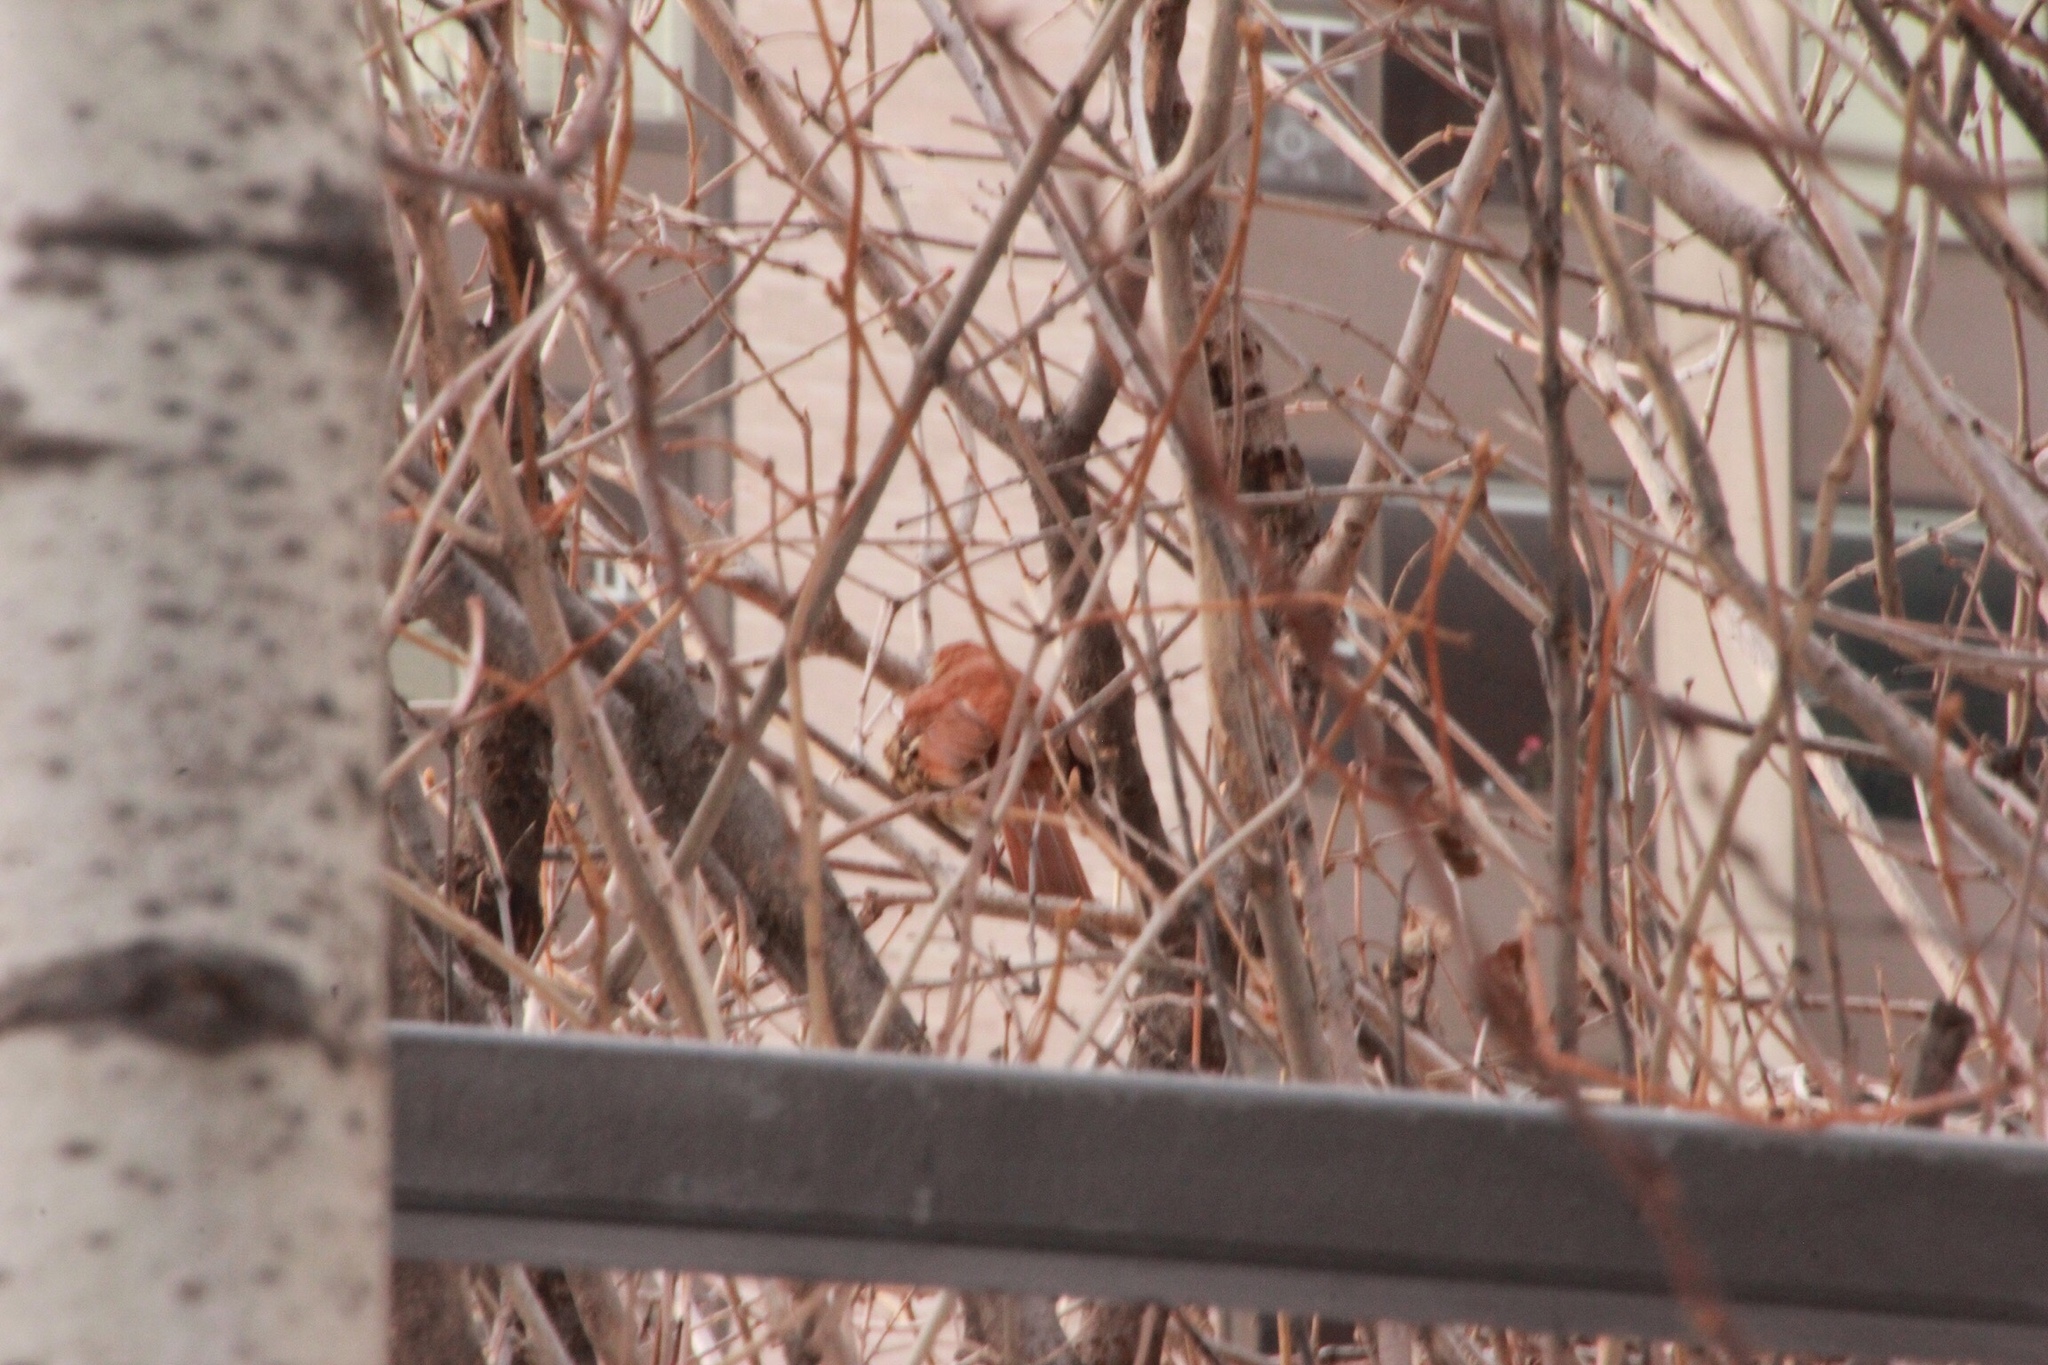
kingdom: Animalia
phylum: Chordata
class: Aves
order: Passeriformes
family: Mimidae
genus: Toxostoma
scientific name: Toxostoma rufum
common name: Brown thrasher
